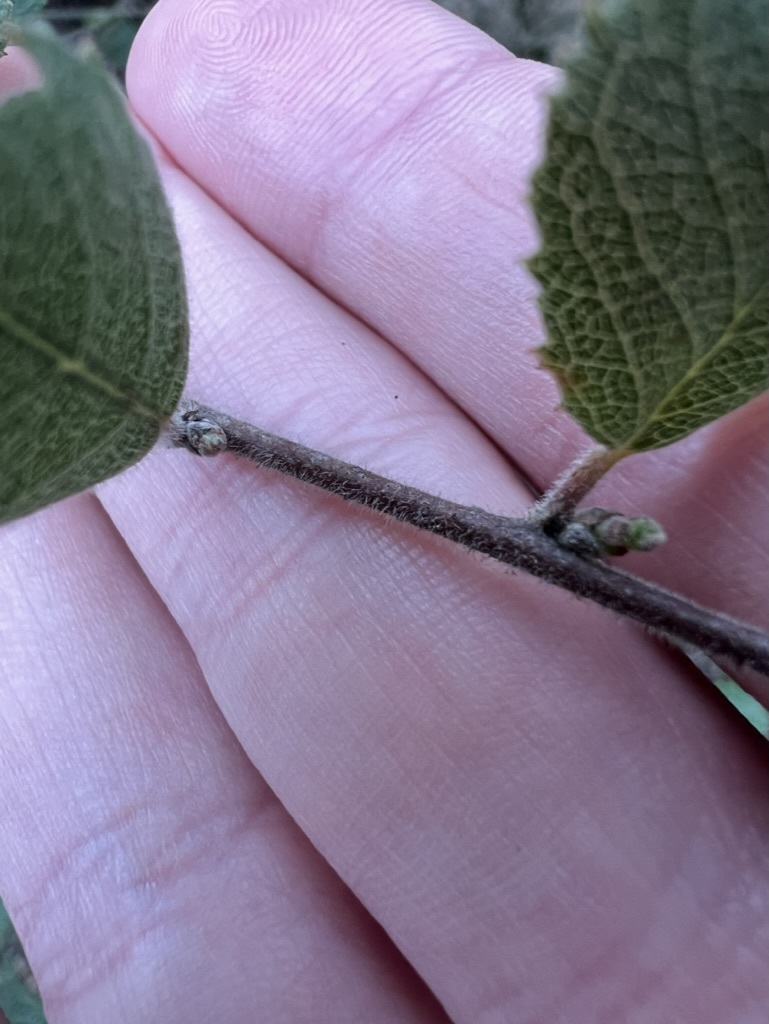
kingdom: Plantae
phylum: Tracheophyta
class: Magnoliopsida
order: Rosales
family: Rhamnaceae
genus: Endotropis
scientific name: Endotropis crocea
